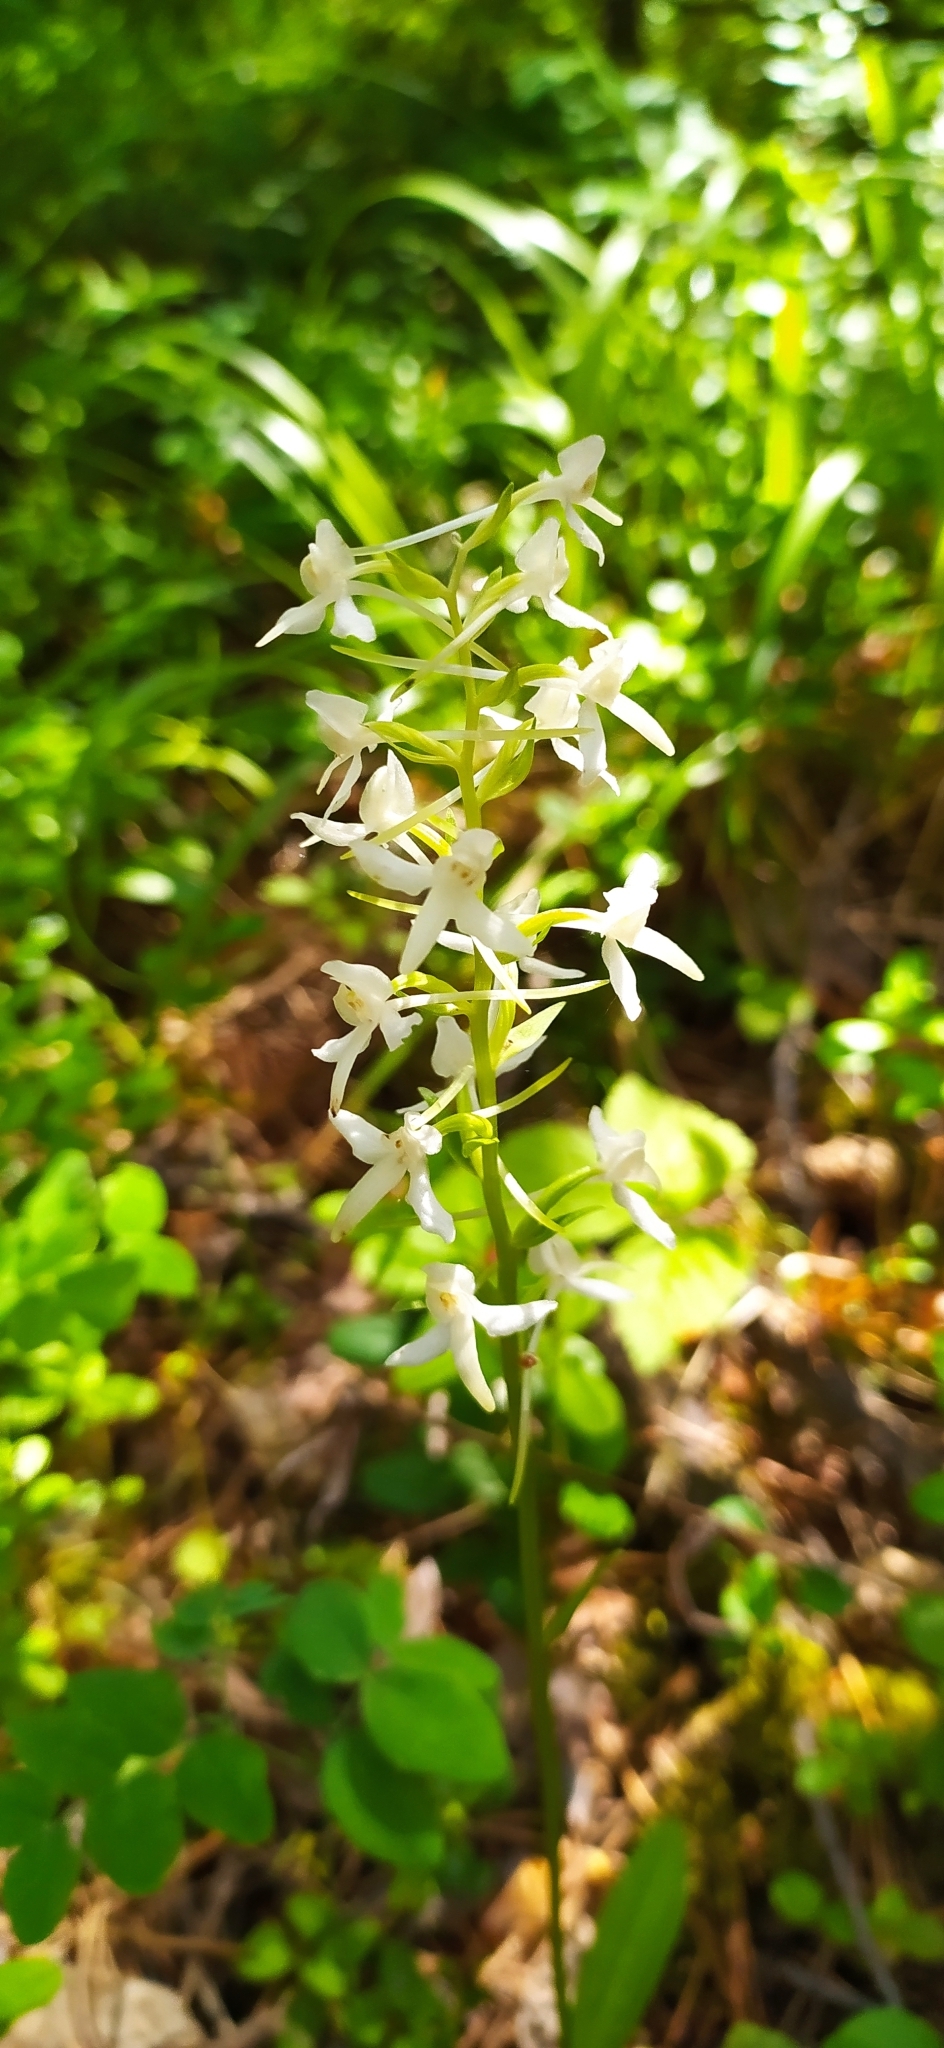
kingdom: Plantae
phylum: Tracheophyta
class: Liliopsida
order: Asparagales
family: Orchidaceae
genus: Platanthera
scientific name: Platanthera bifolia
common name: Lesser butterfly-orchid
